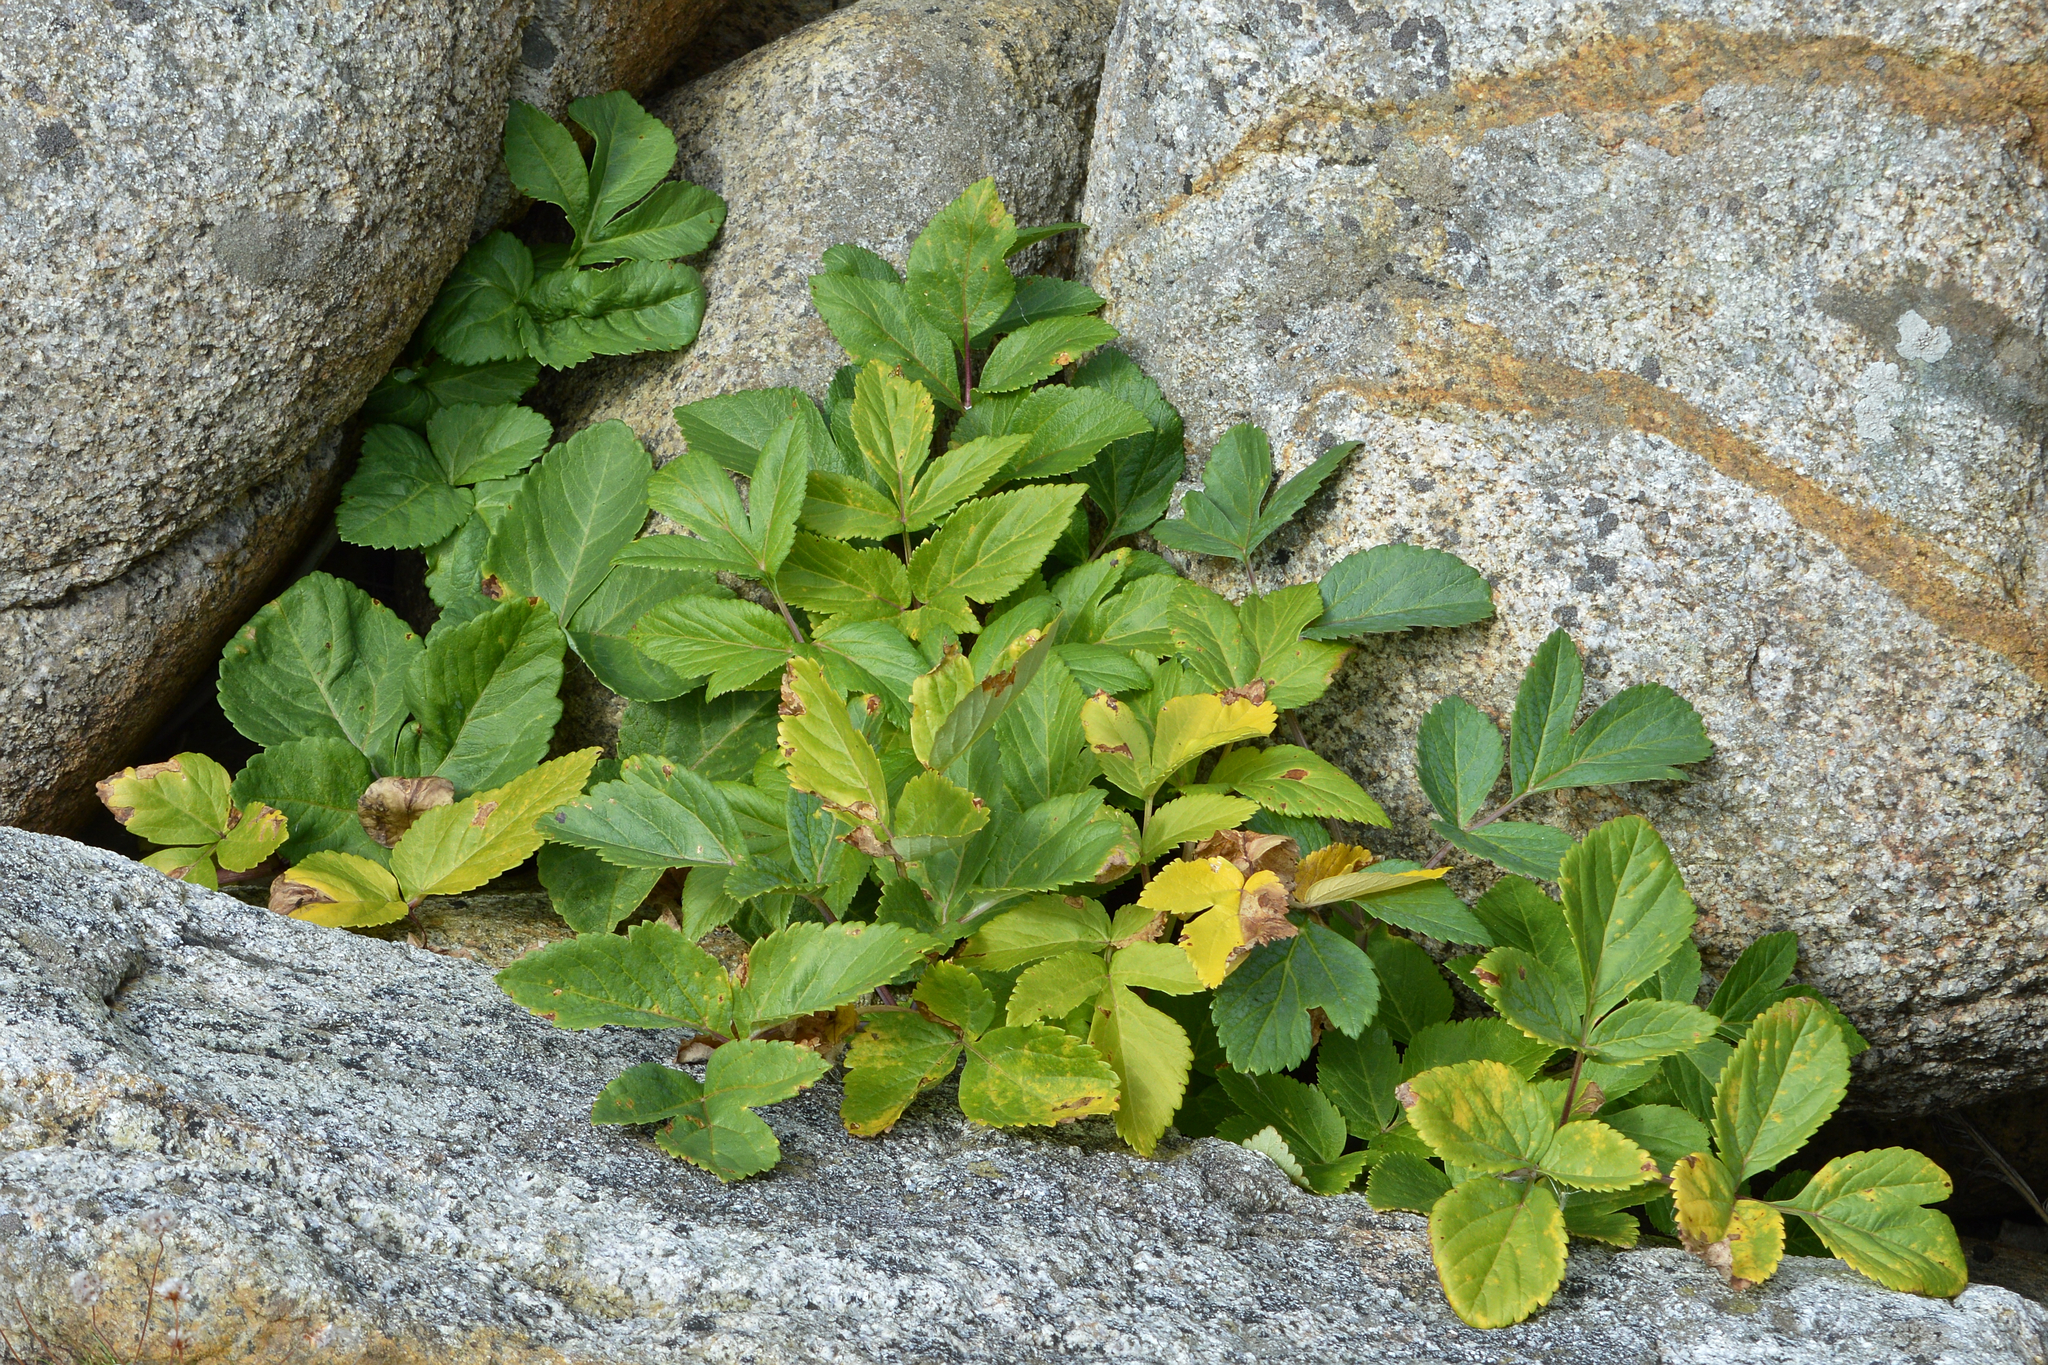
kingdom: Plantae
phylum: Tracheophyta
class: Magnoliopsida
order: Apiales
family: Apiaceae
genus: Angelica
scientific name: Angelica archangelica
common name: Garden angelica
